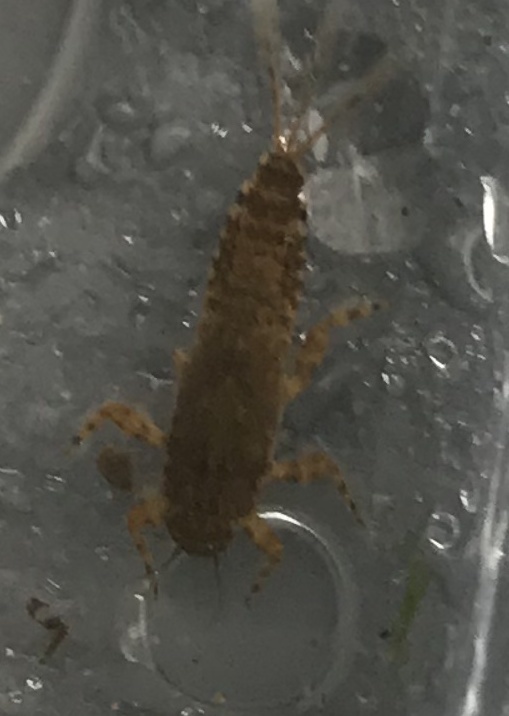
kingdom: Animalia
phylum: Arthropoda
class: Insecta
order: Ephemeroptera
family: Ephemerellidae
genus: Ephemerella
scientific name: Ephemerella subvaria
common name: Dark hendrickson
